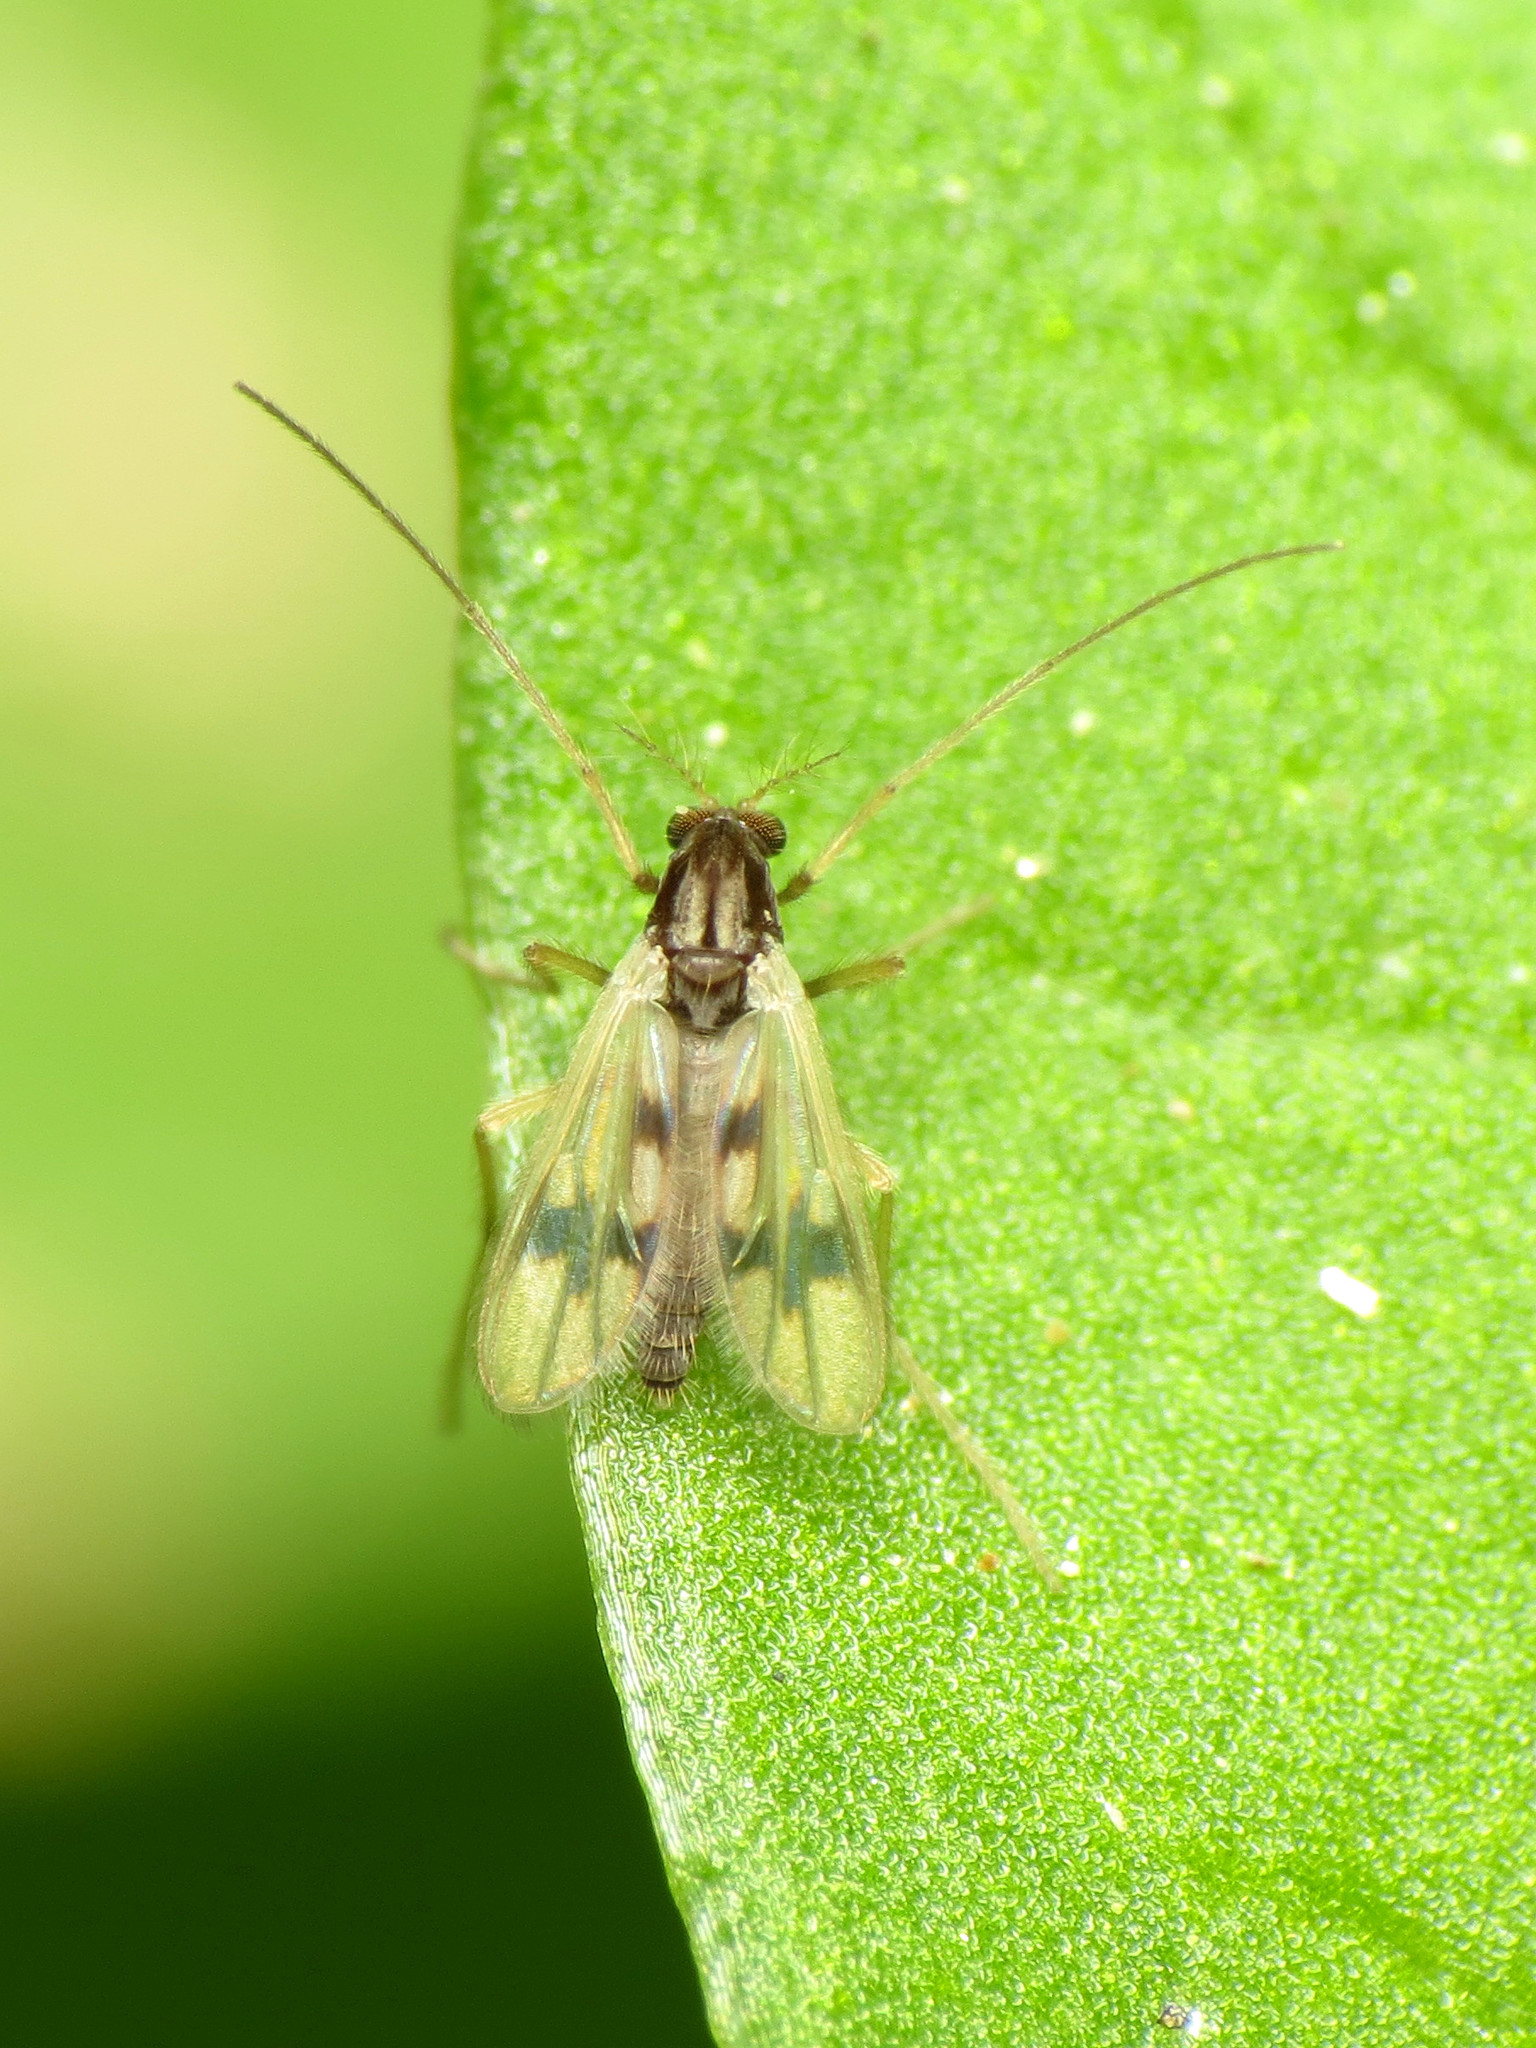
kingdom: Animalia
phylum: Arthropoda
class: Insecta
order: Diptera
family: Chironomidae
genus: Polypedilum
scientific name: Polypedilum scalaenum
